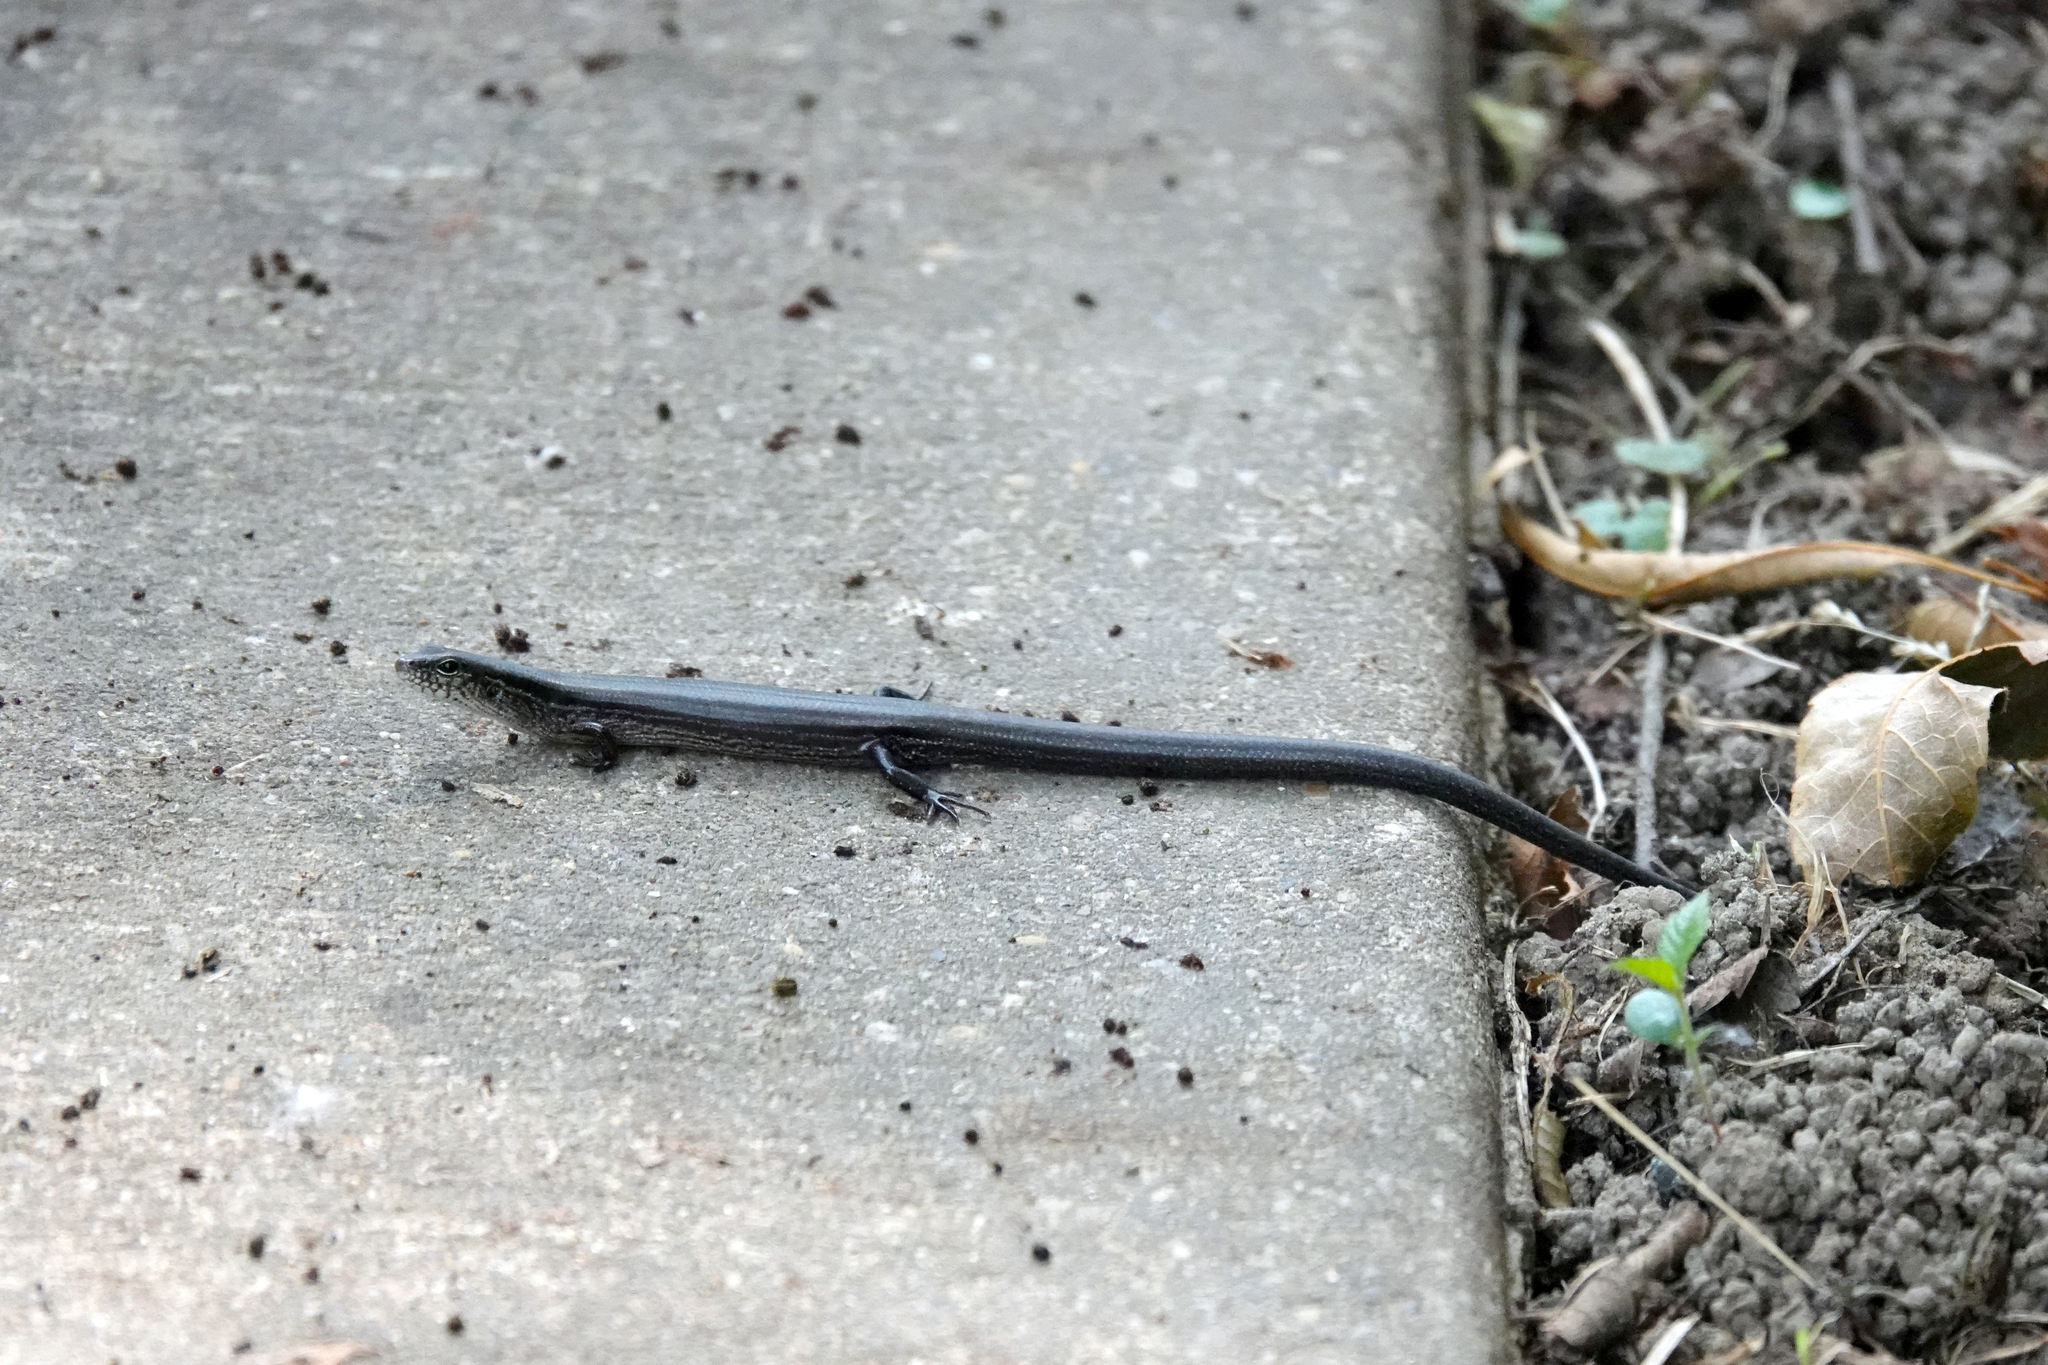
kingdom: Animalia
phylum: Chordata
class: Squamata
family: Scincidae
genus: Scincella
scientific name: Scincella lateralis
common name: Ground skink
